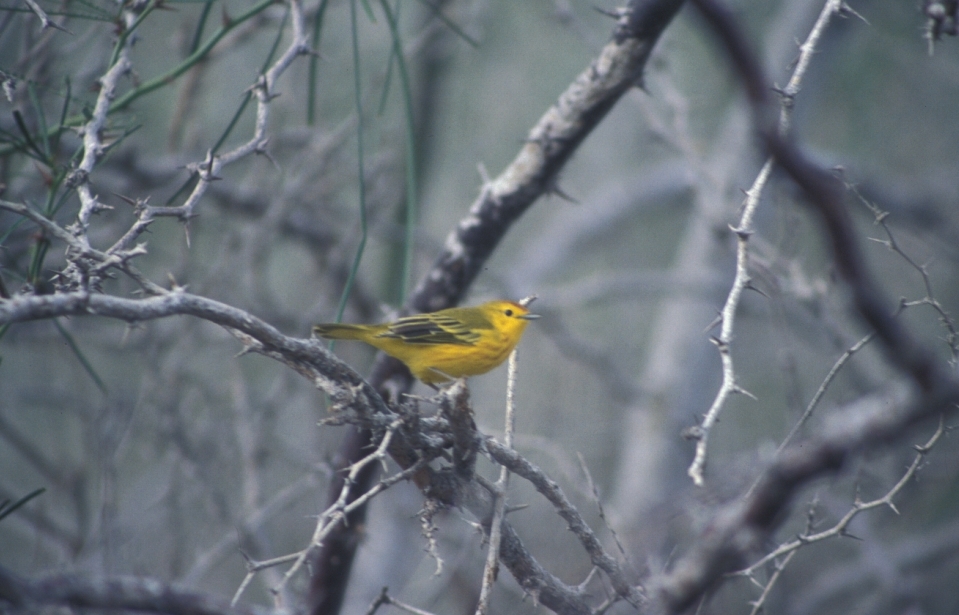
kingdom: Animalia
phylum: Chordata
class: Aves
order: Passeriformes
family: Parulidae
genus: Setophaga
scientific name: Setophaga petechia
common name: Yellow warbler
